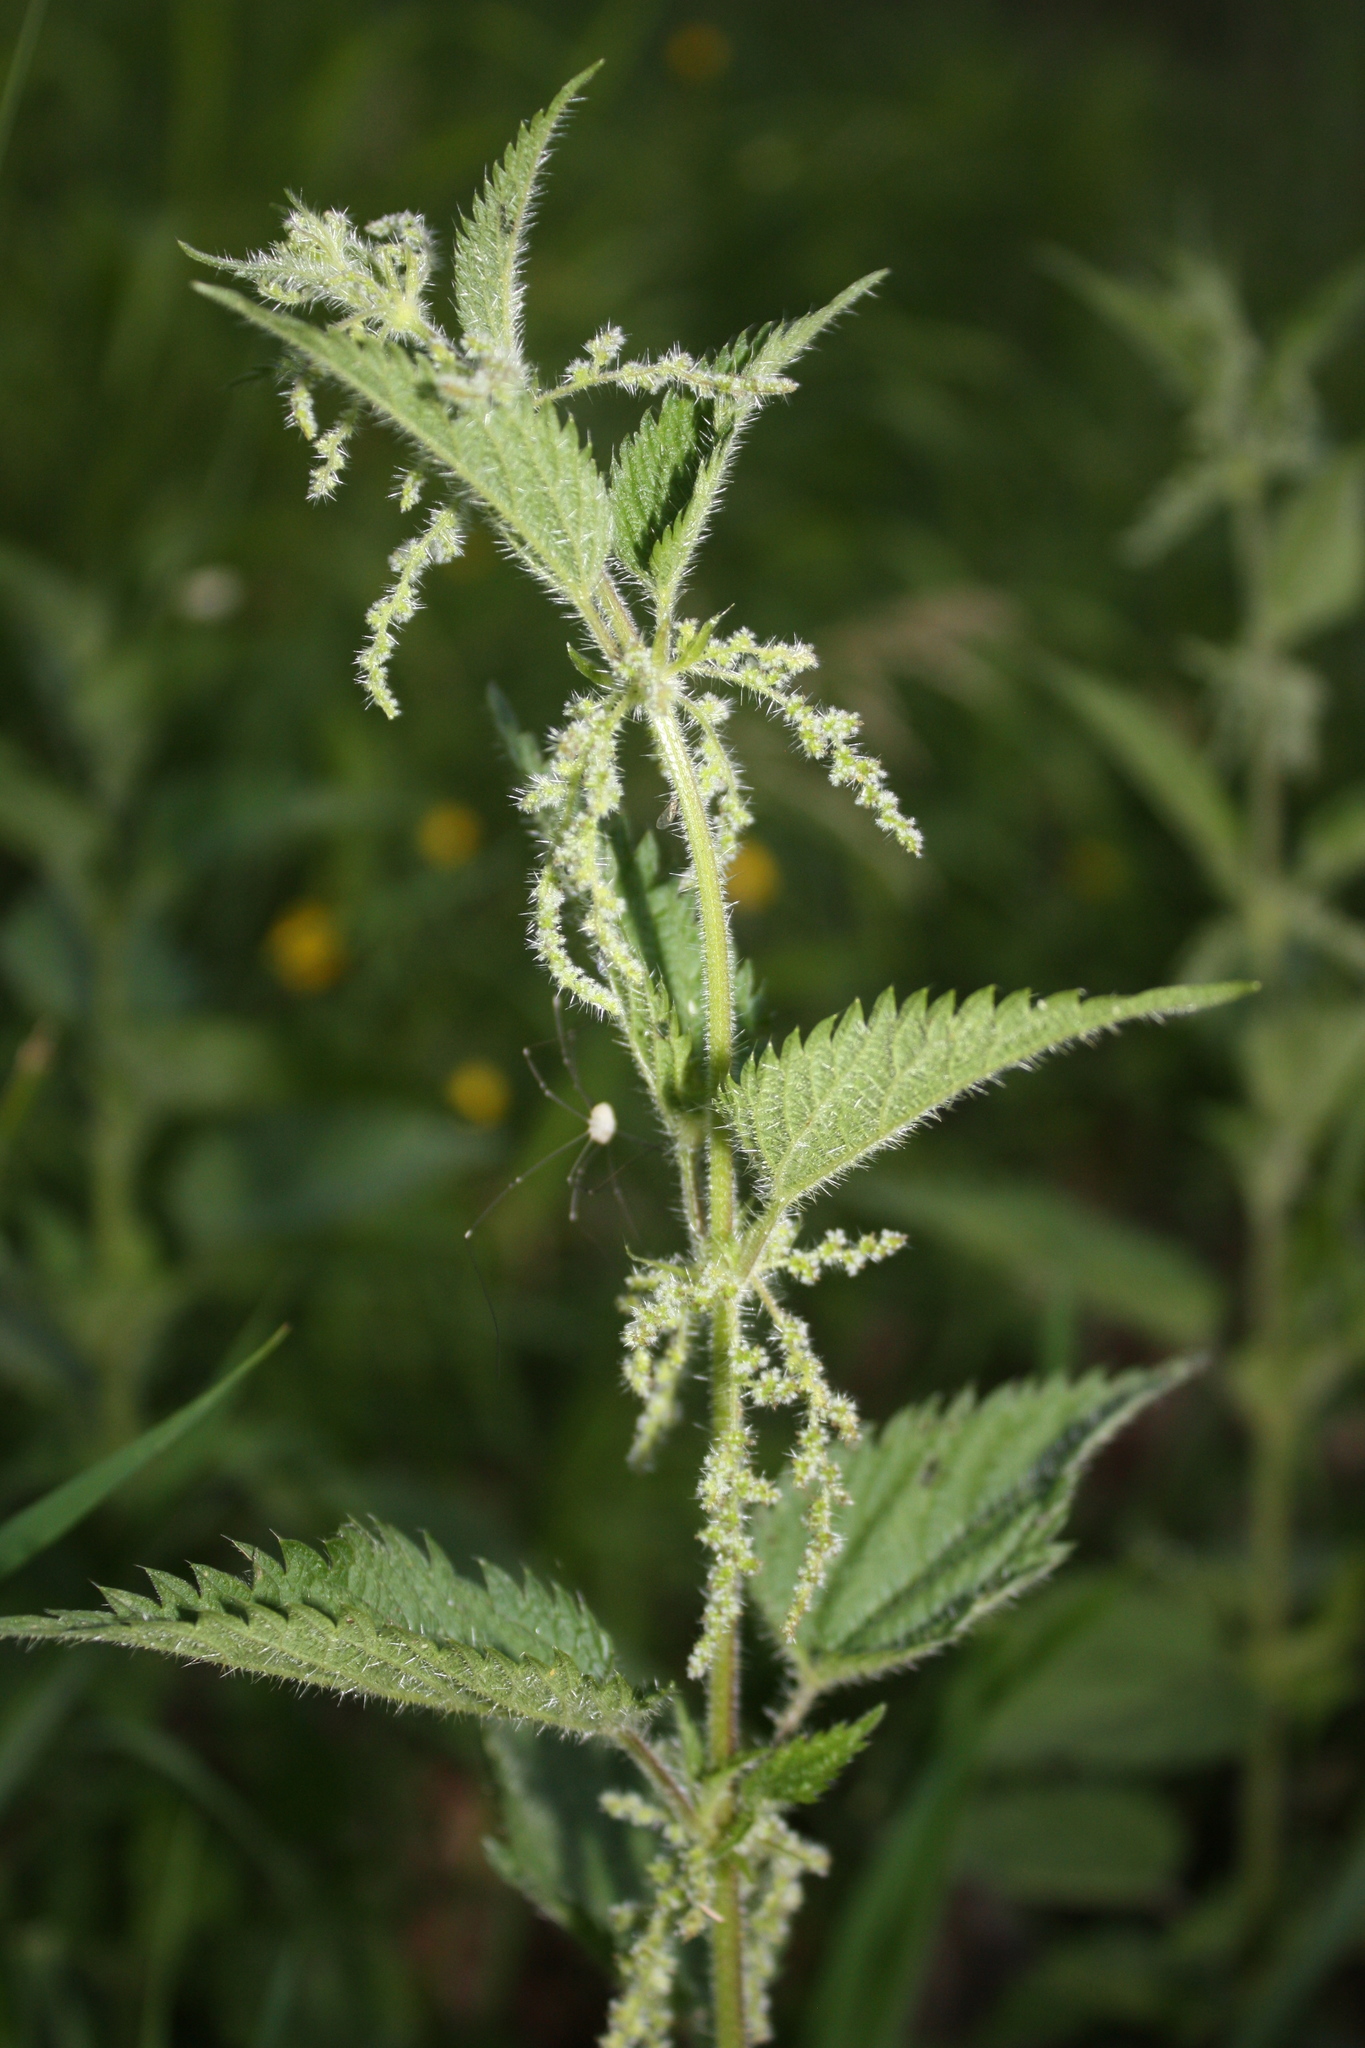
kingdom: Plantae
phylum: Tracheophyta
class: Magnoliopsida
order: Rosales
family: Urticaceae
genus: Urtica
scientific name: Urtica dioica
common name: Common nettle
